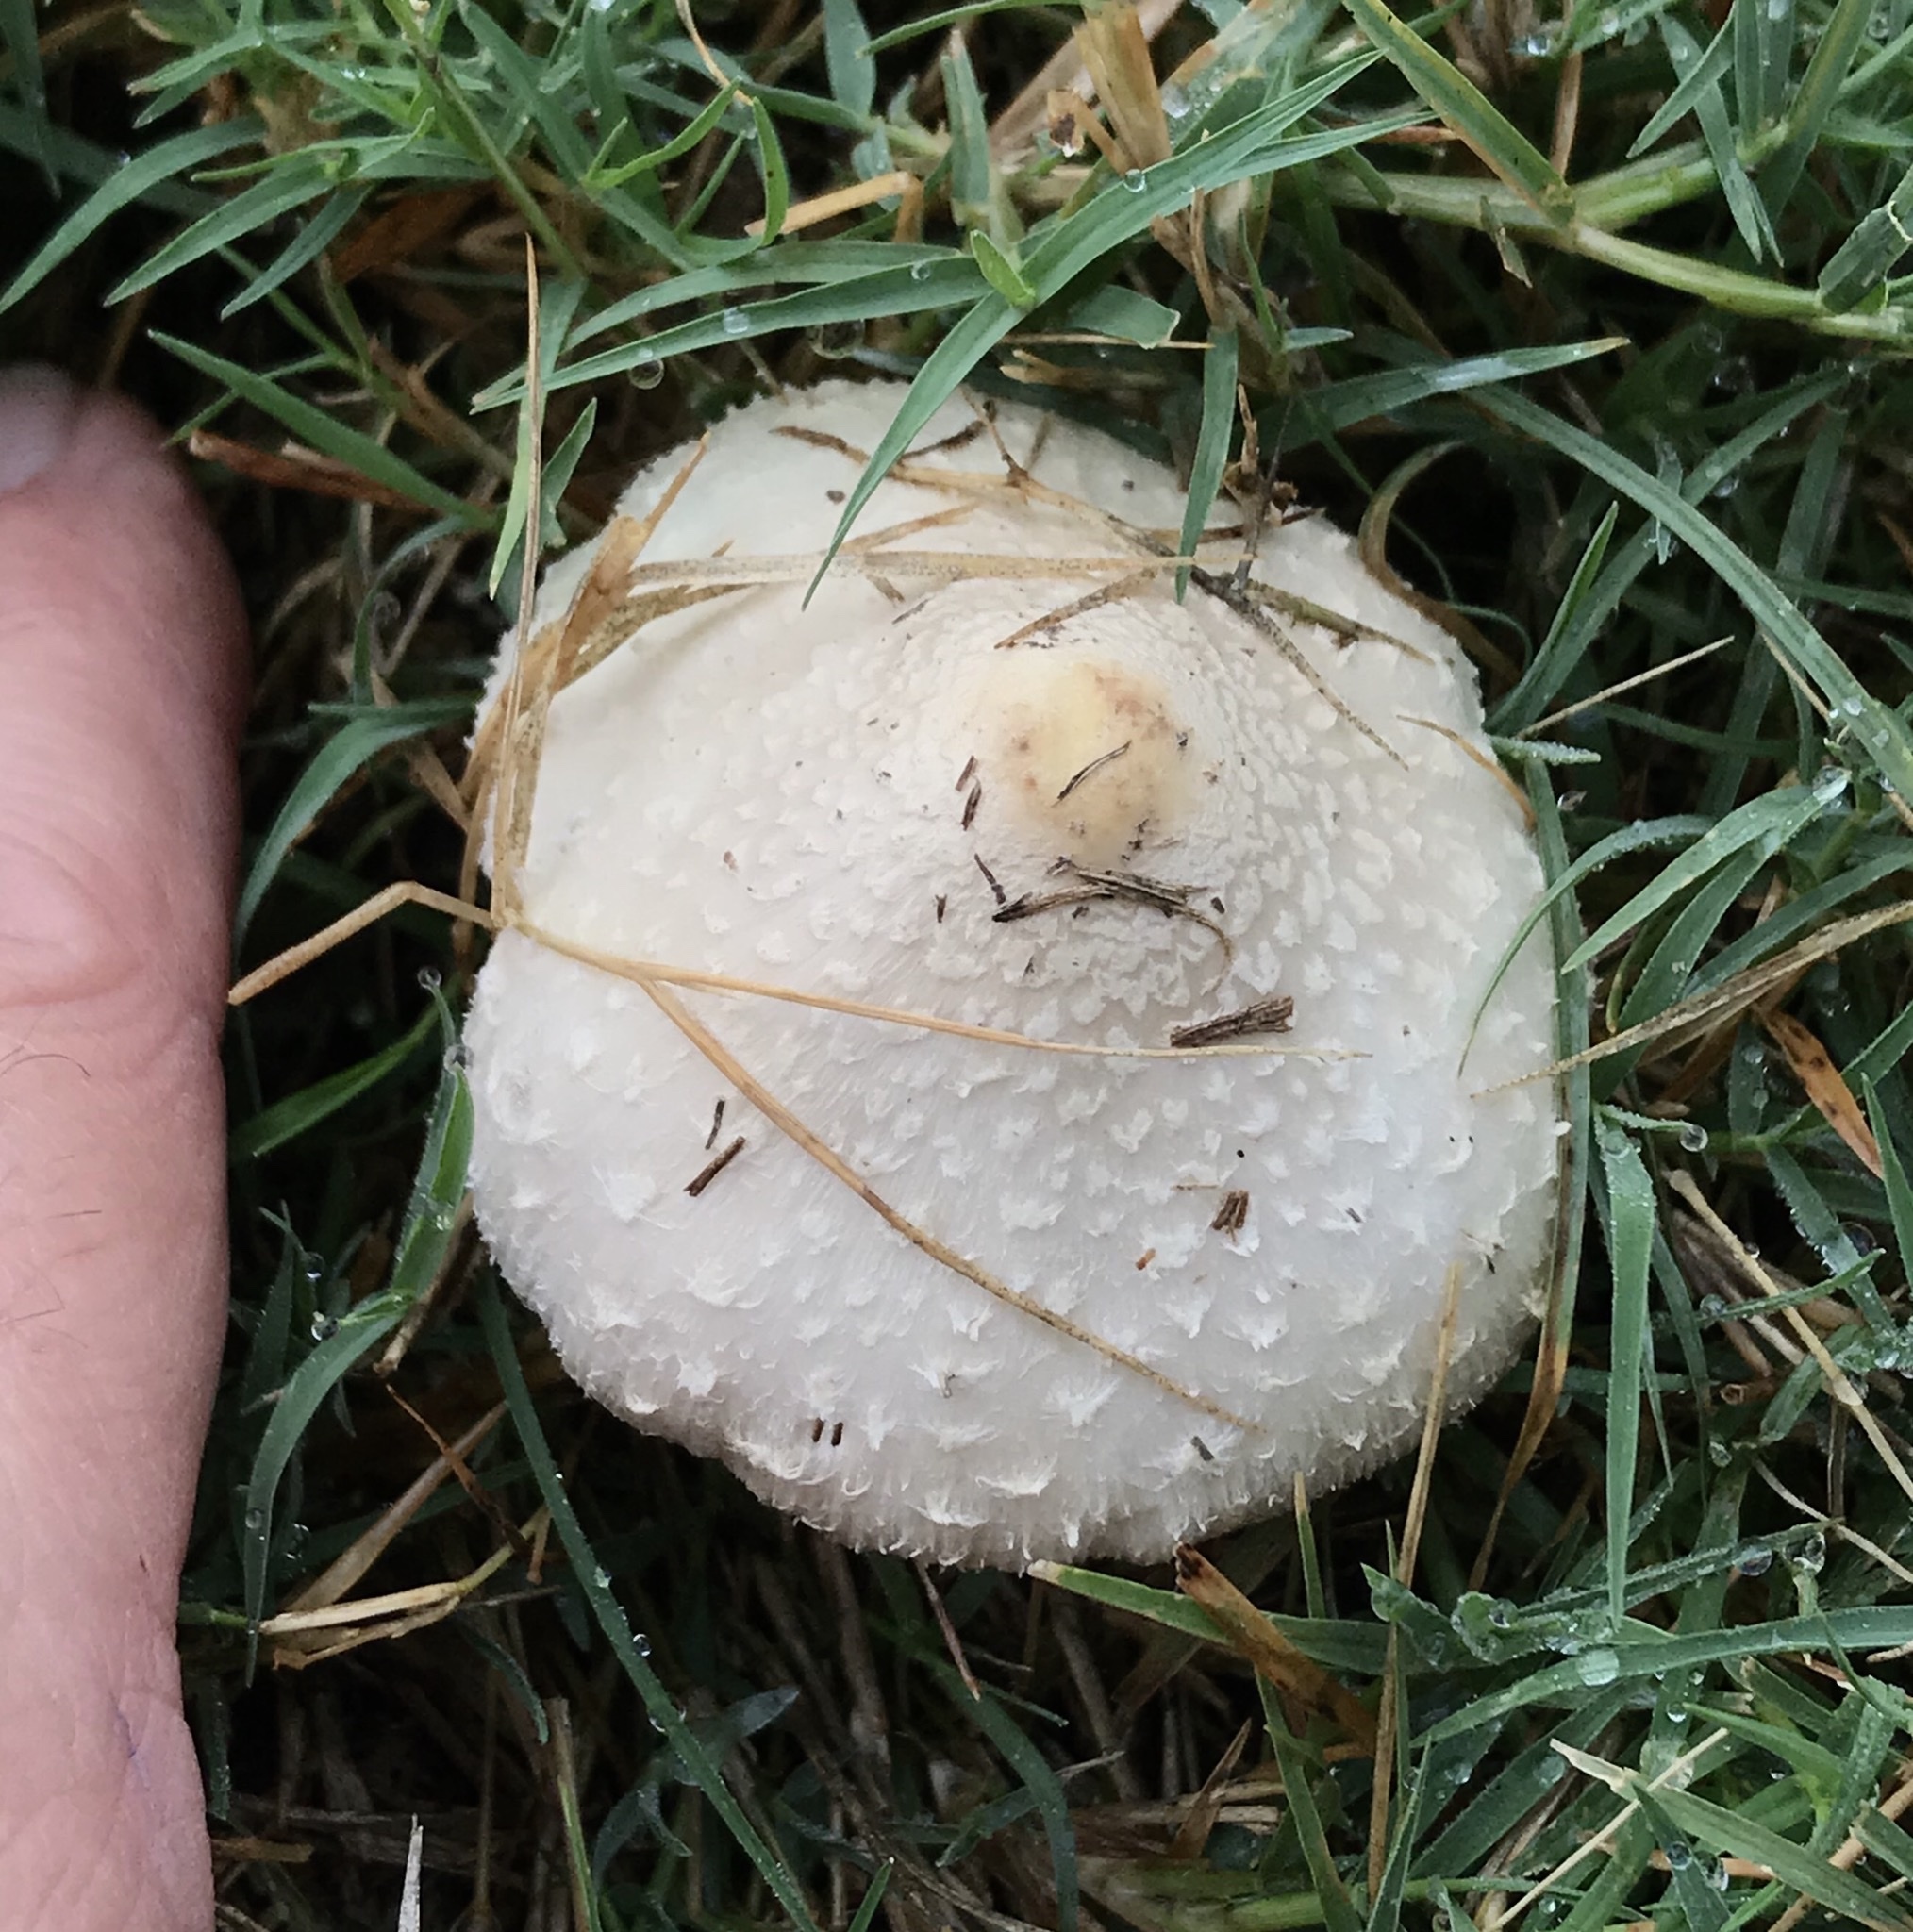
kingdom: Fungi
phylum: Basidiomycota
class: Agaricomycetes
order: Agaricales
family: Agaricaceae
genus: Chlorophyllum
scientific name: Chlorophyllum molybdites
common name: False parasol
